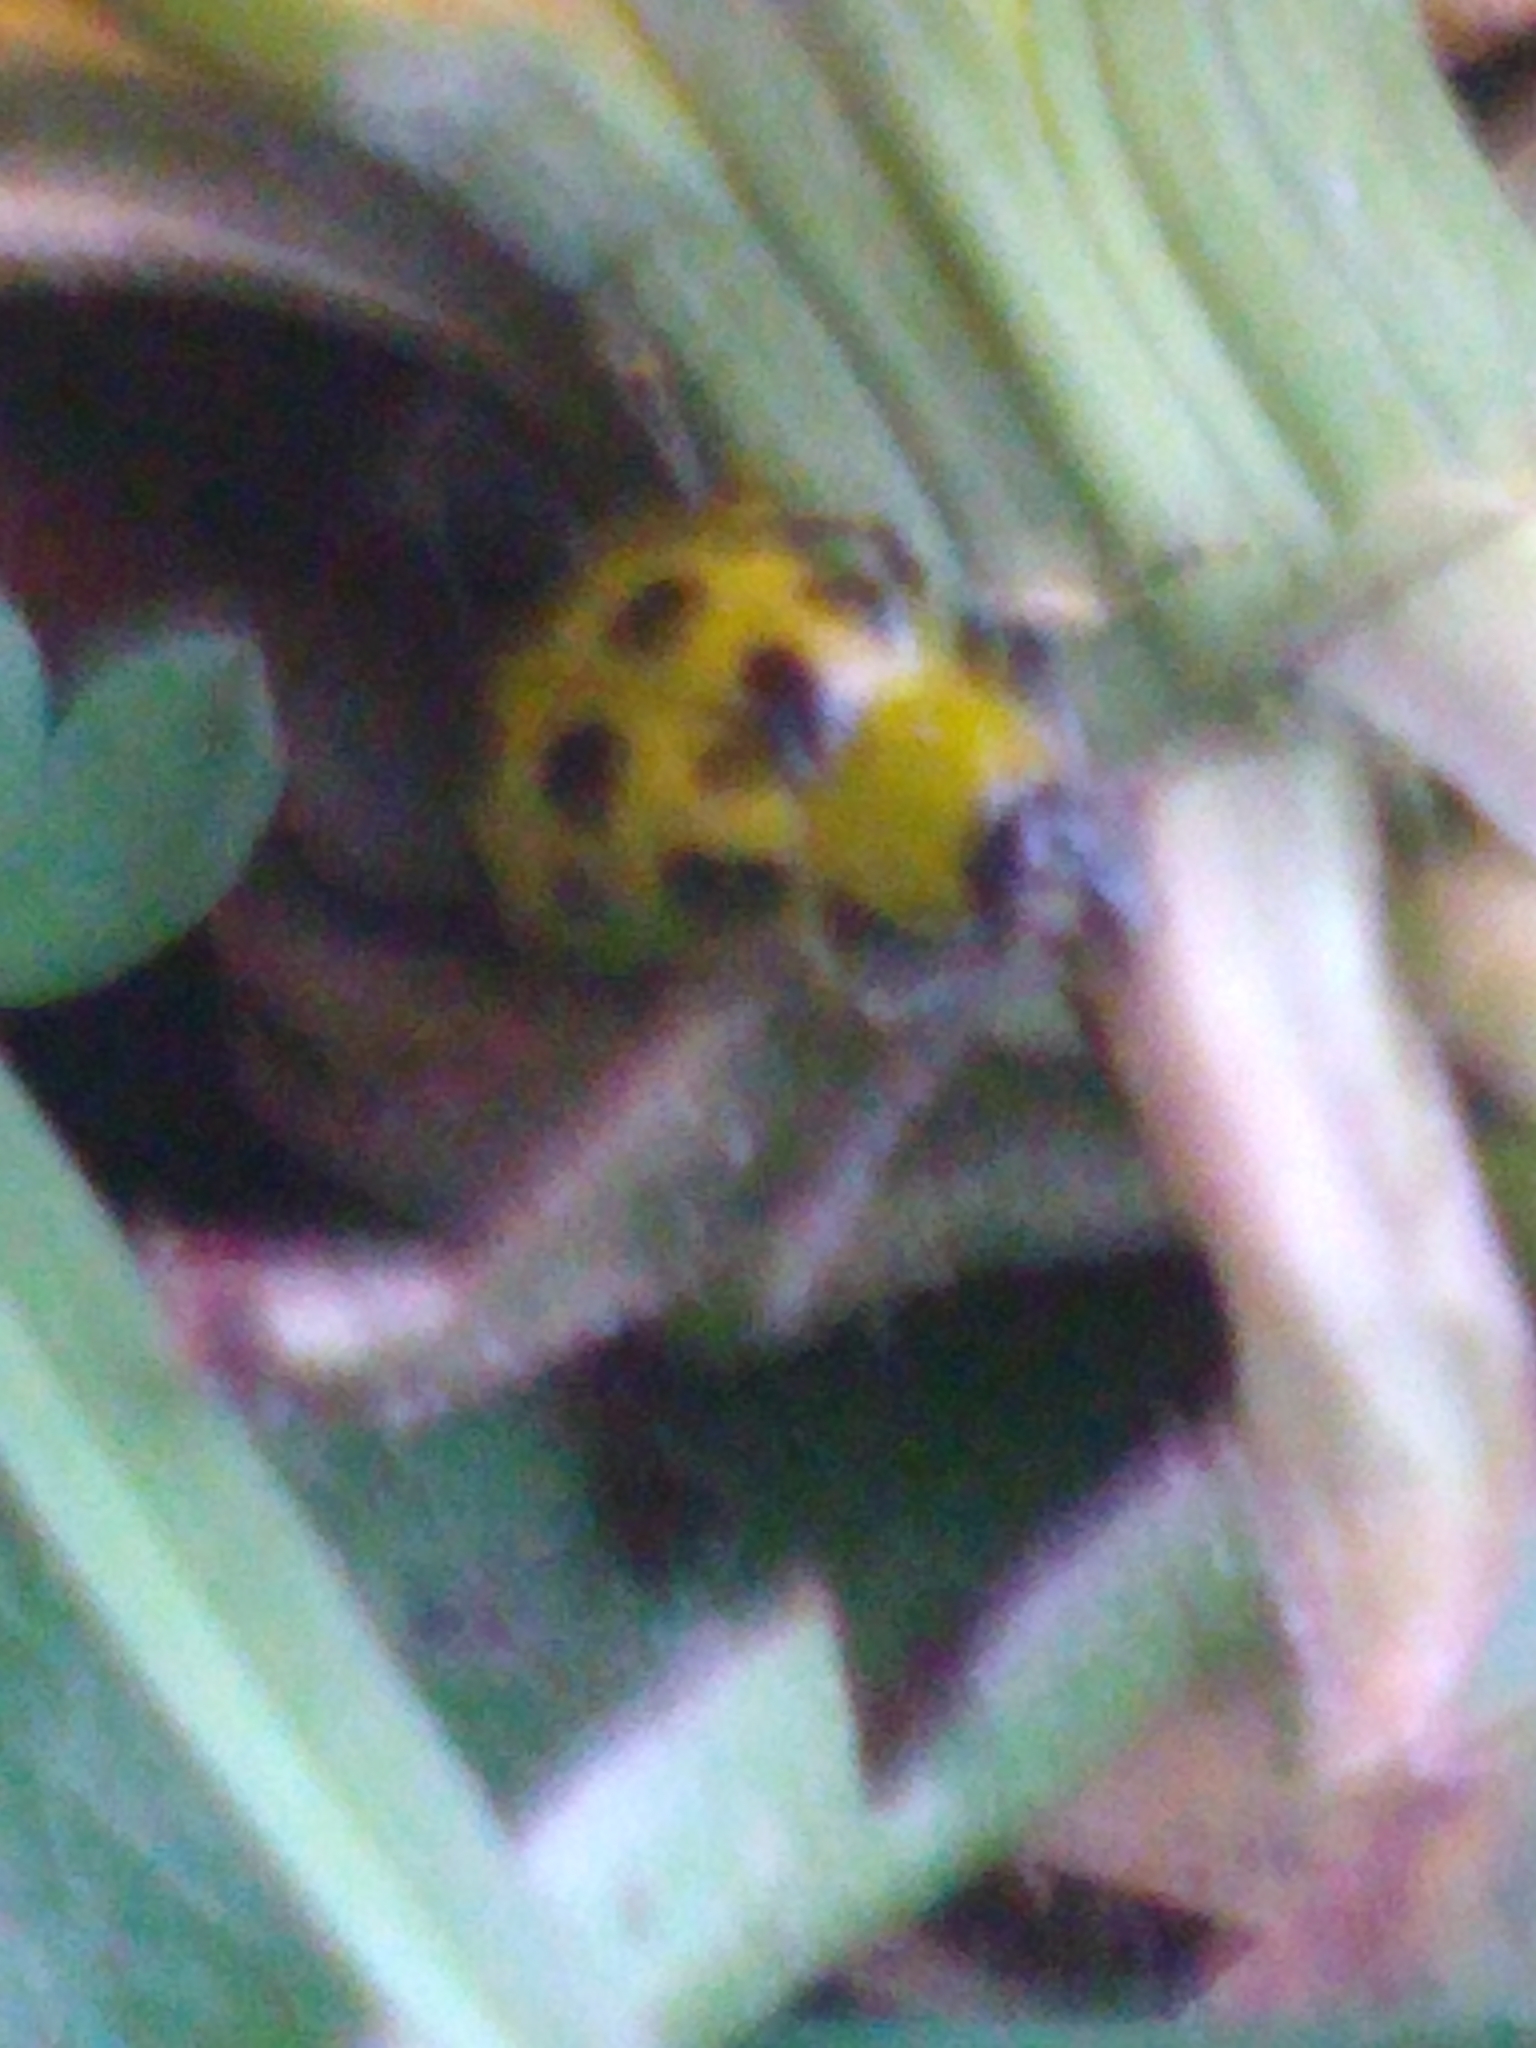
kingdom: Animalia
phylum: Arthropoda
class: Insecta
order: Coleoptera
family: Chrysomelidae
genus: Diabrotica
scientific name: Diabrotica undecimpunctata
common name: Spotted cucumber beetle
